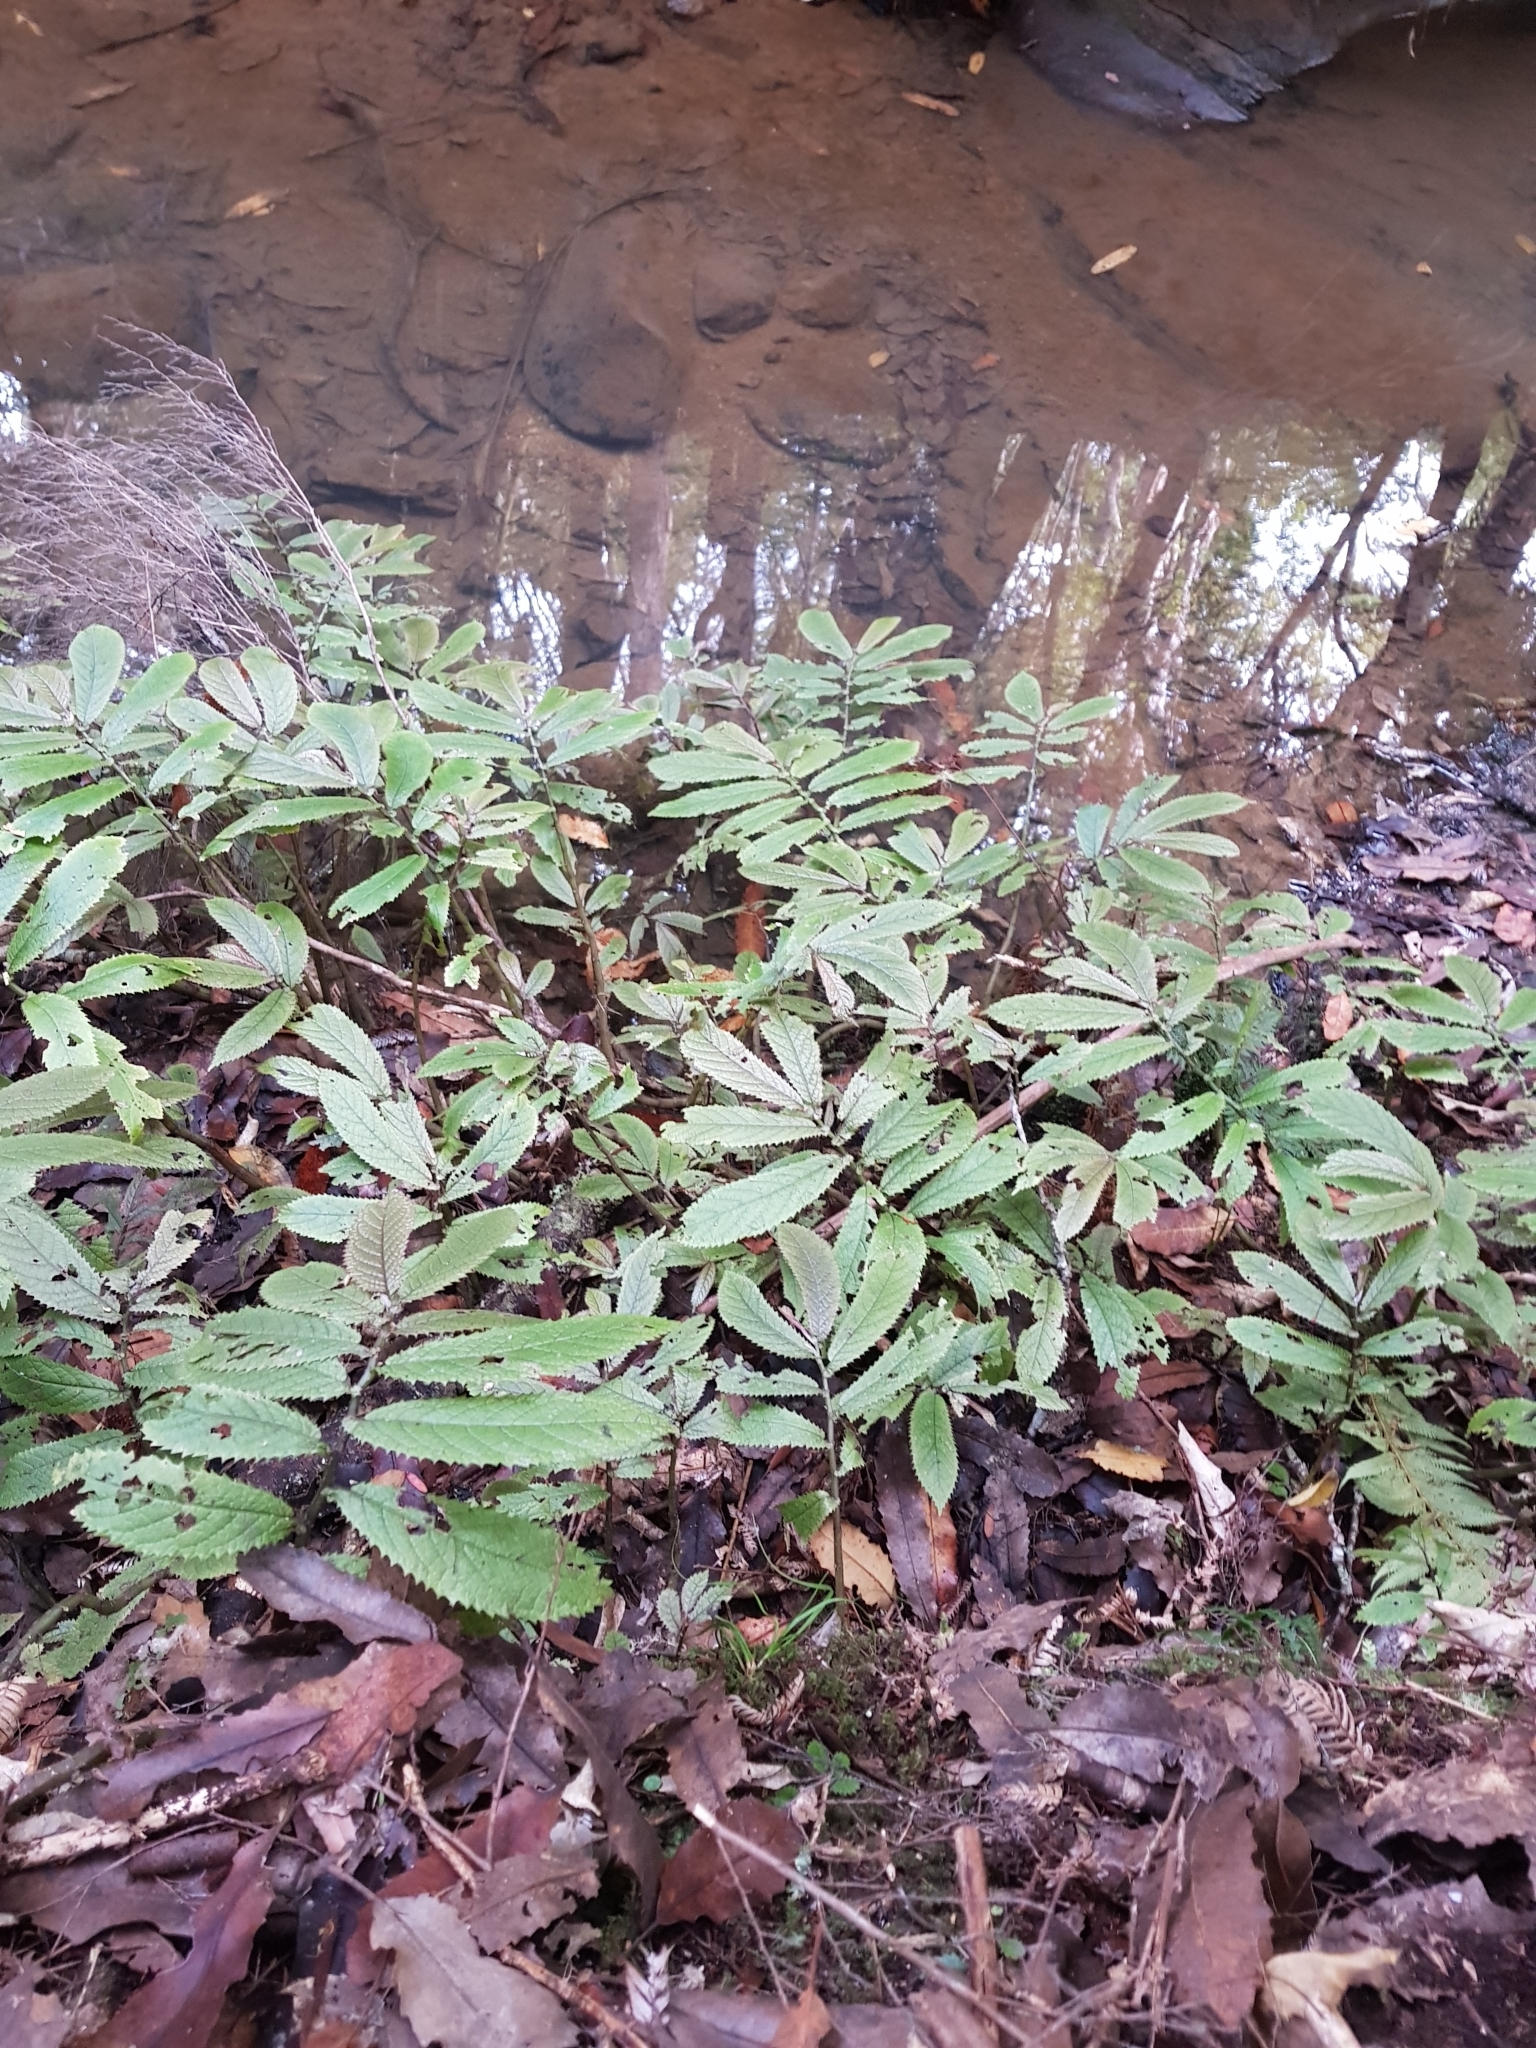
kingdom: Plantae
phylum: Tracheophyta
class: Magnoliopsida
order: Rosales
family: Urticaceae
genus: Elatostema
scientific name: Elatostema rugosum
